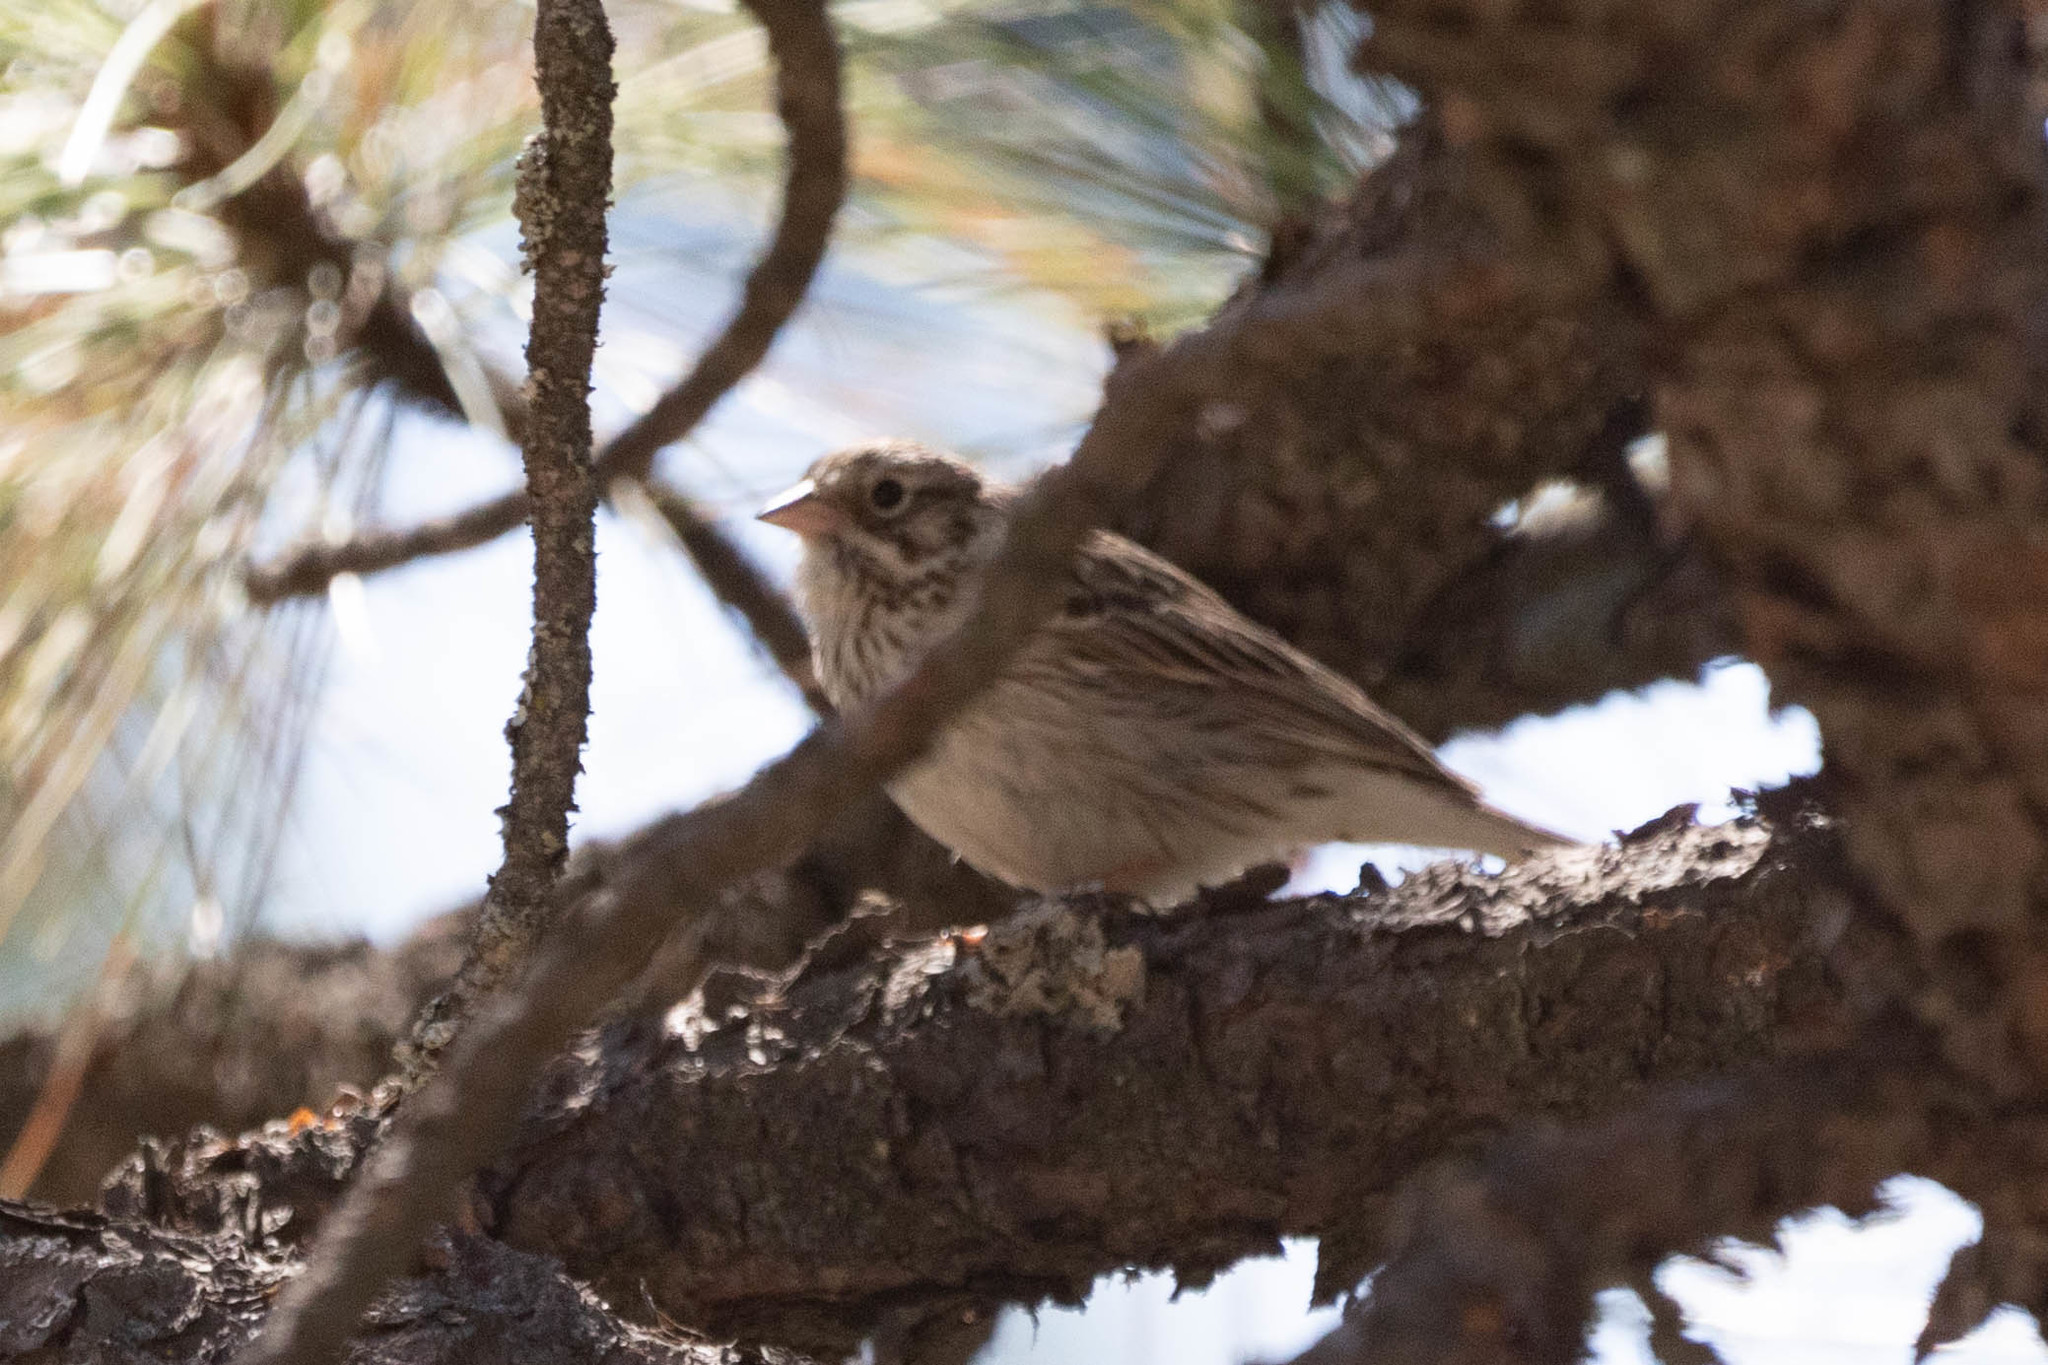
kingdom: Animalia
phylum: Chordata
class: Aves
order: Passeriformes
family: Passerellidae
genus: Pooecetes
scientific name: Pooecetes gramineus
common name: Vesper sparrow
